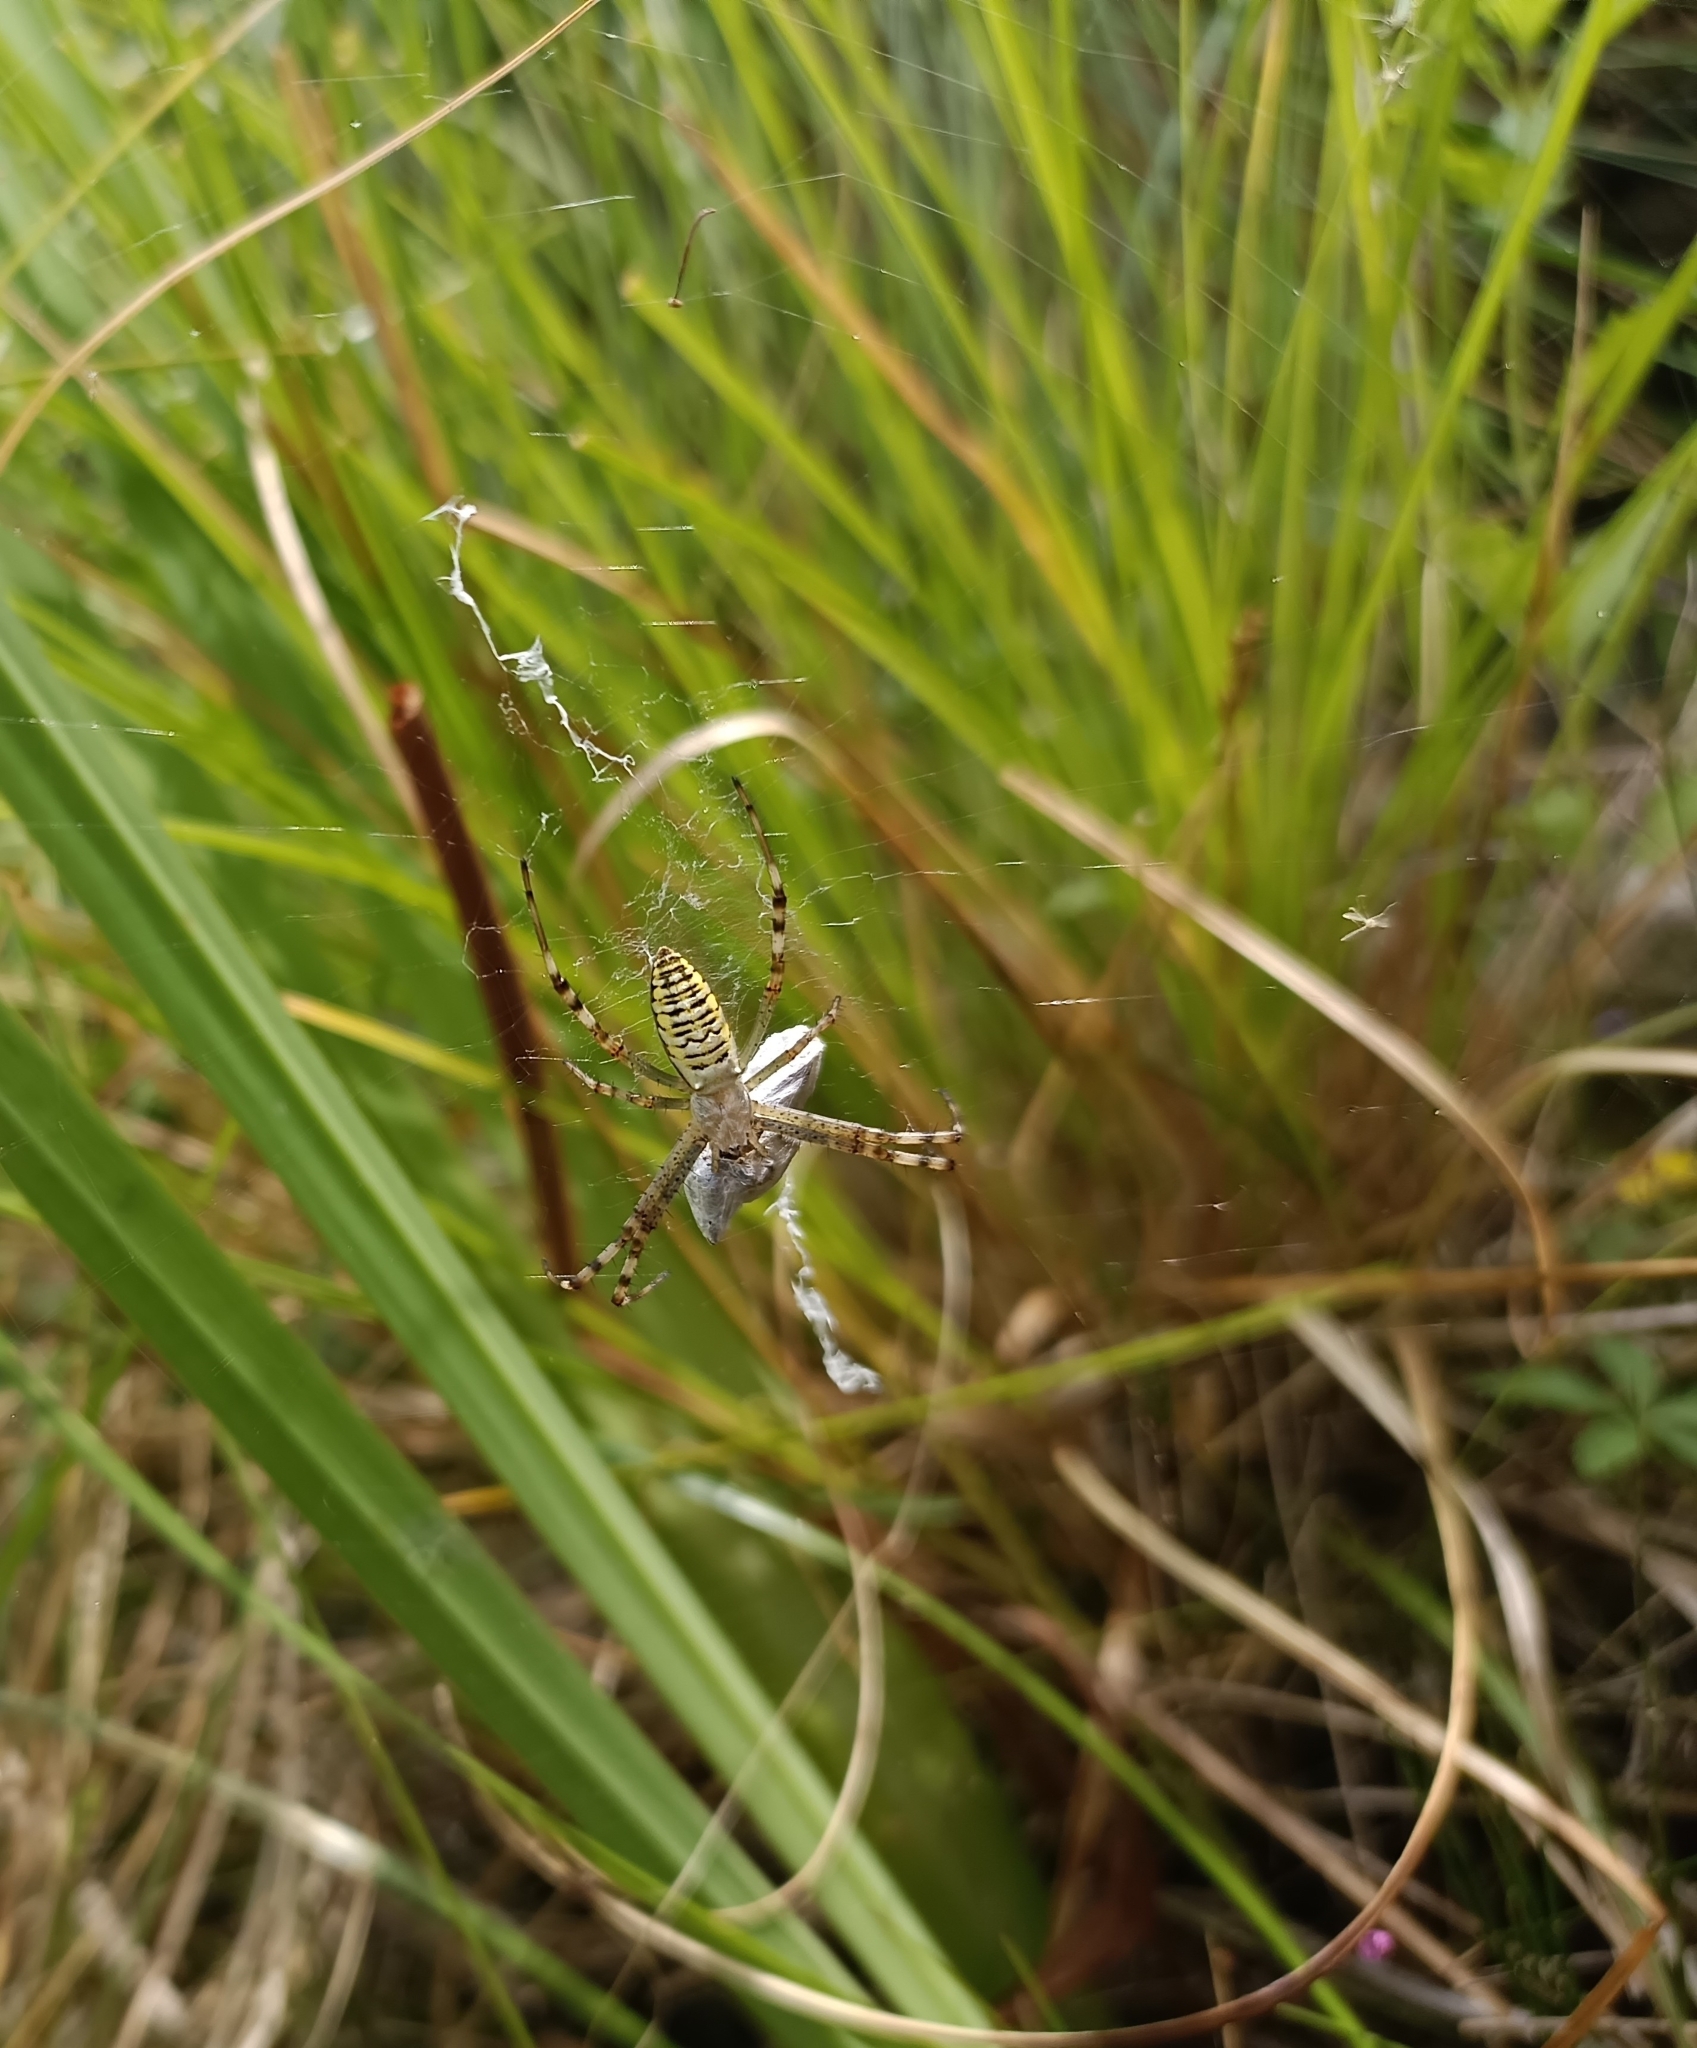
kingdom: Animalia
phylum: Arthropoda
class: Arachnida
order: Araneae
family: Araneidae
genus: Argiope
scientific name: Argiope bruennichi
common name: Wasp spider
